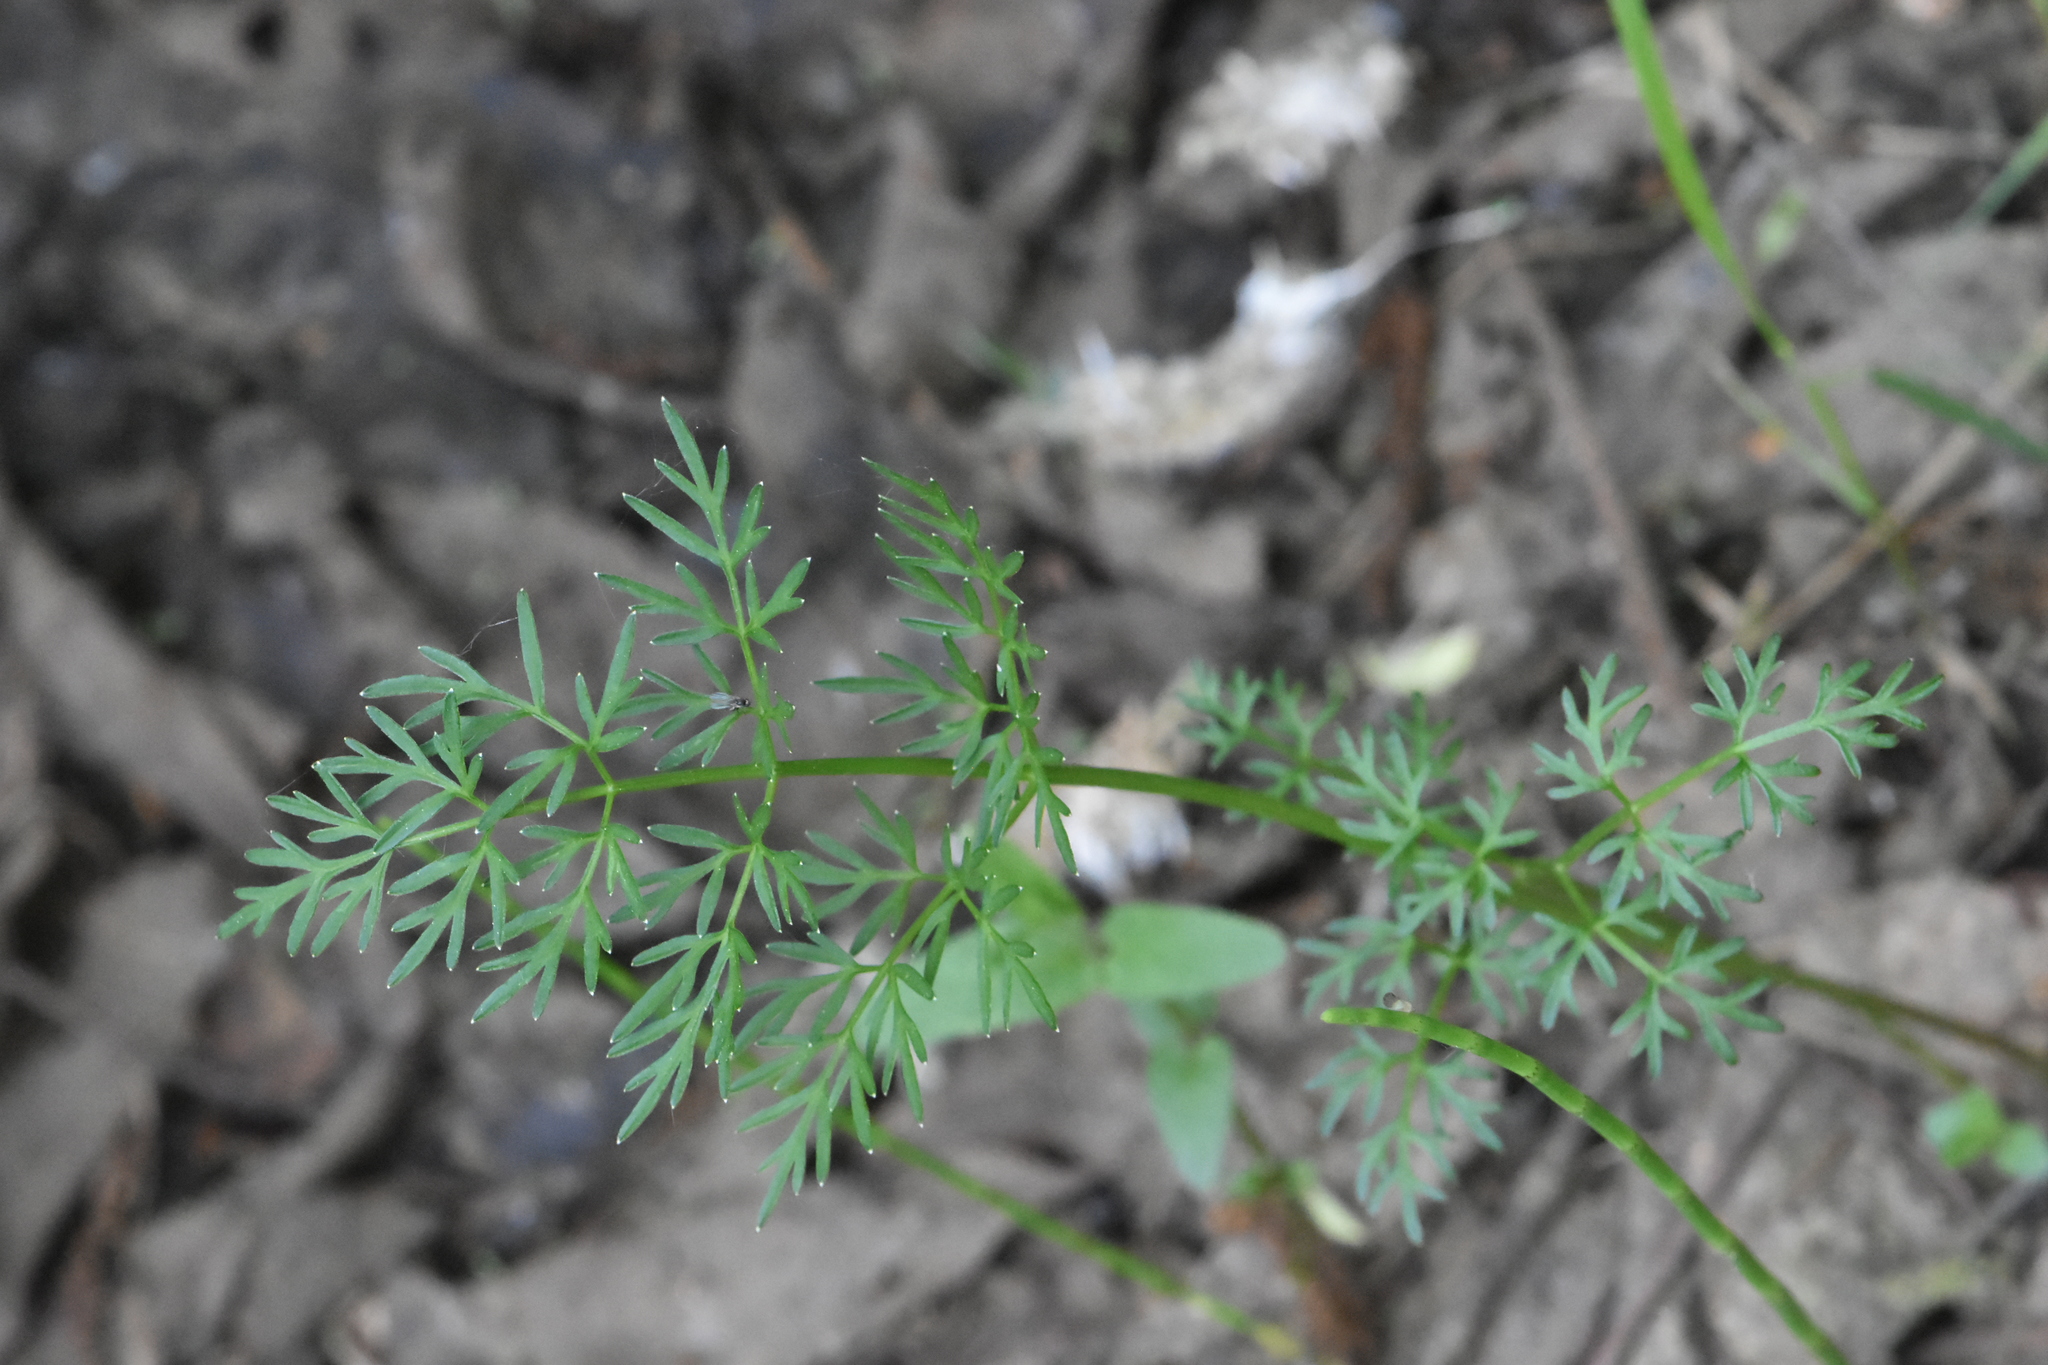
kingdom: Plantae
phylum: Tracheophyta
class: Magnoliopsida
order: Apiales
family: Apiaceae
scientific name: Apiaceae
